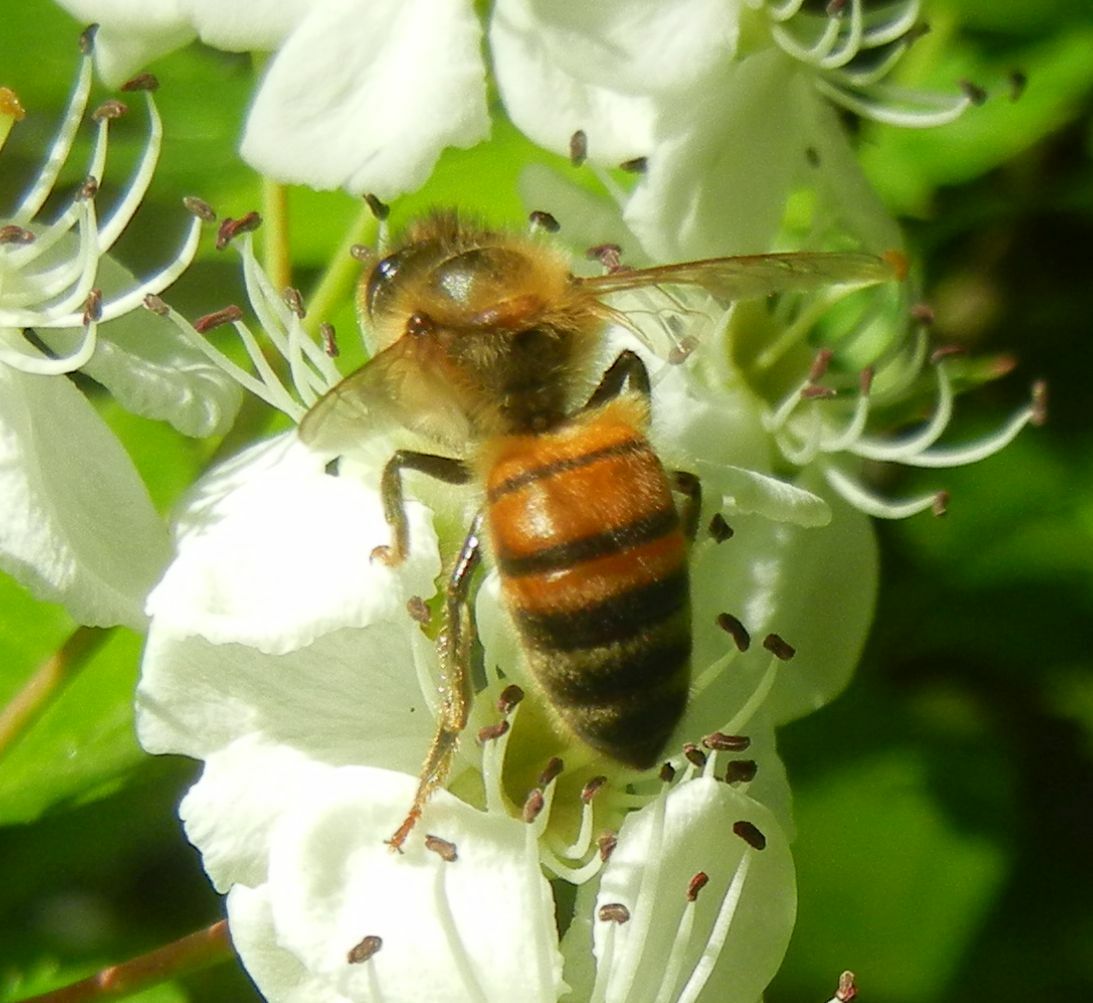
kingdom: Animalia
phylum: Arthropoda
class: Insecta
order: Hymenoptera
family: Apidae
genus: Apis
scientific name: Apis mellifera
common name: Honey bee
